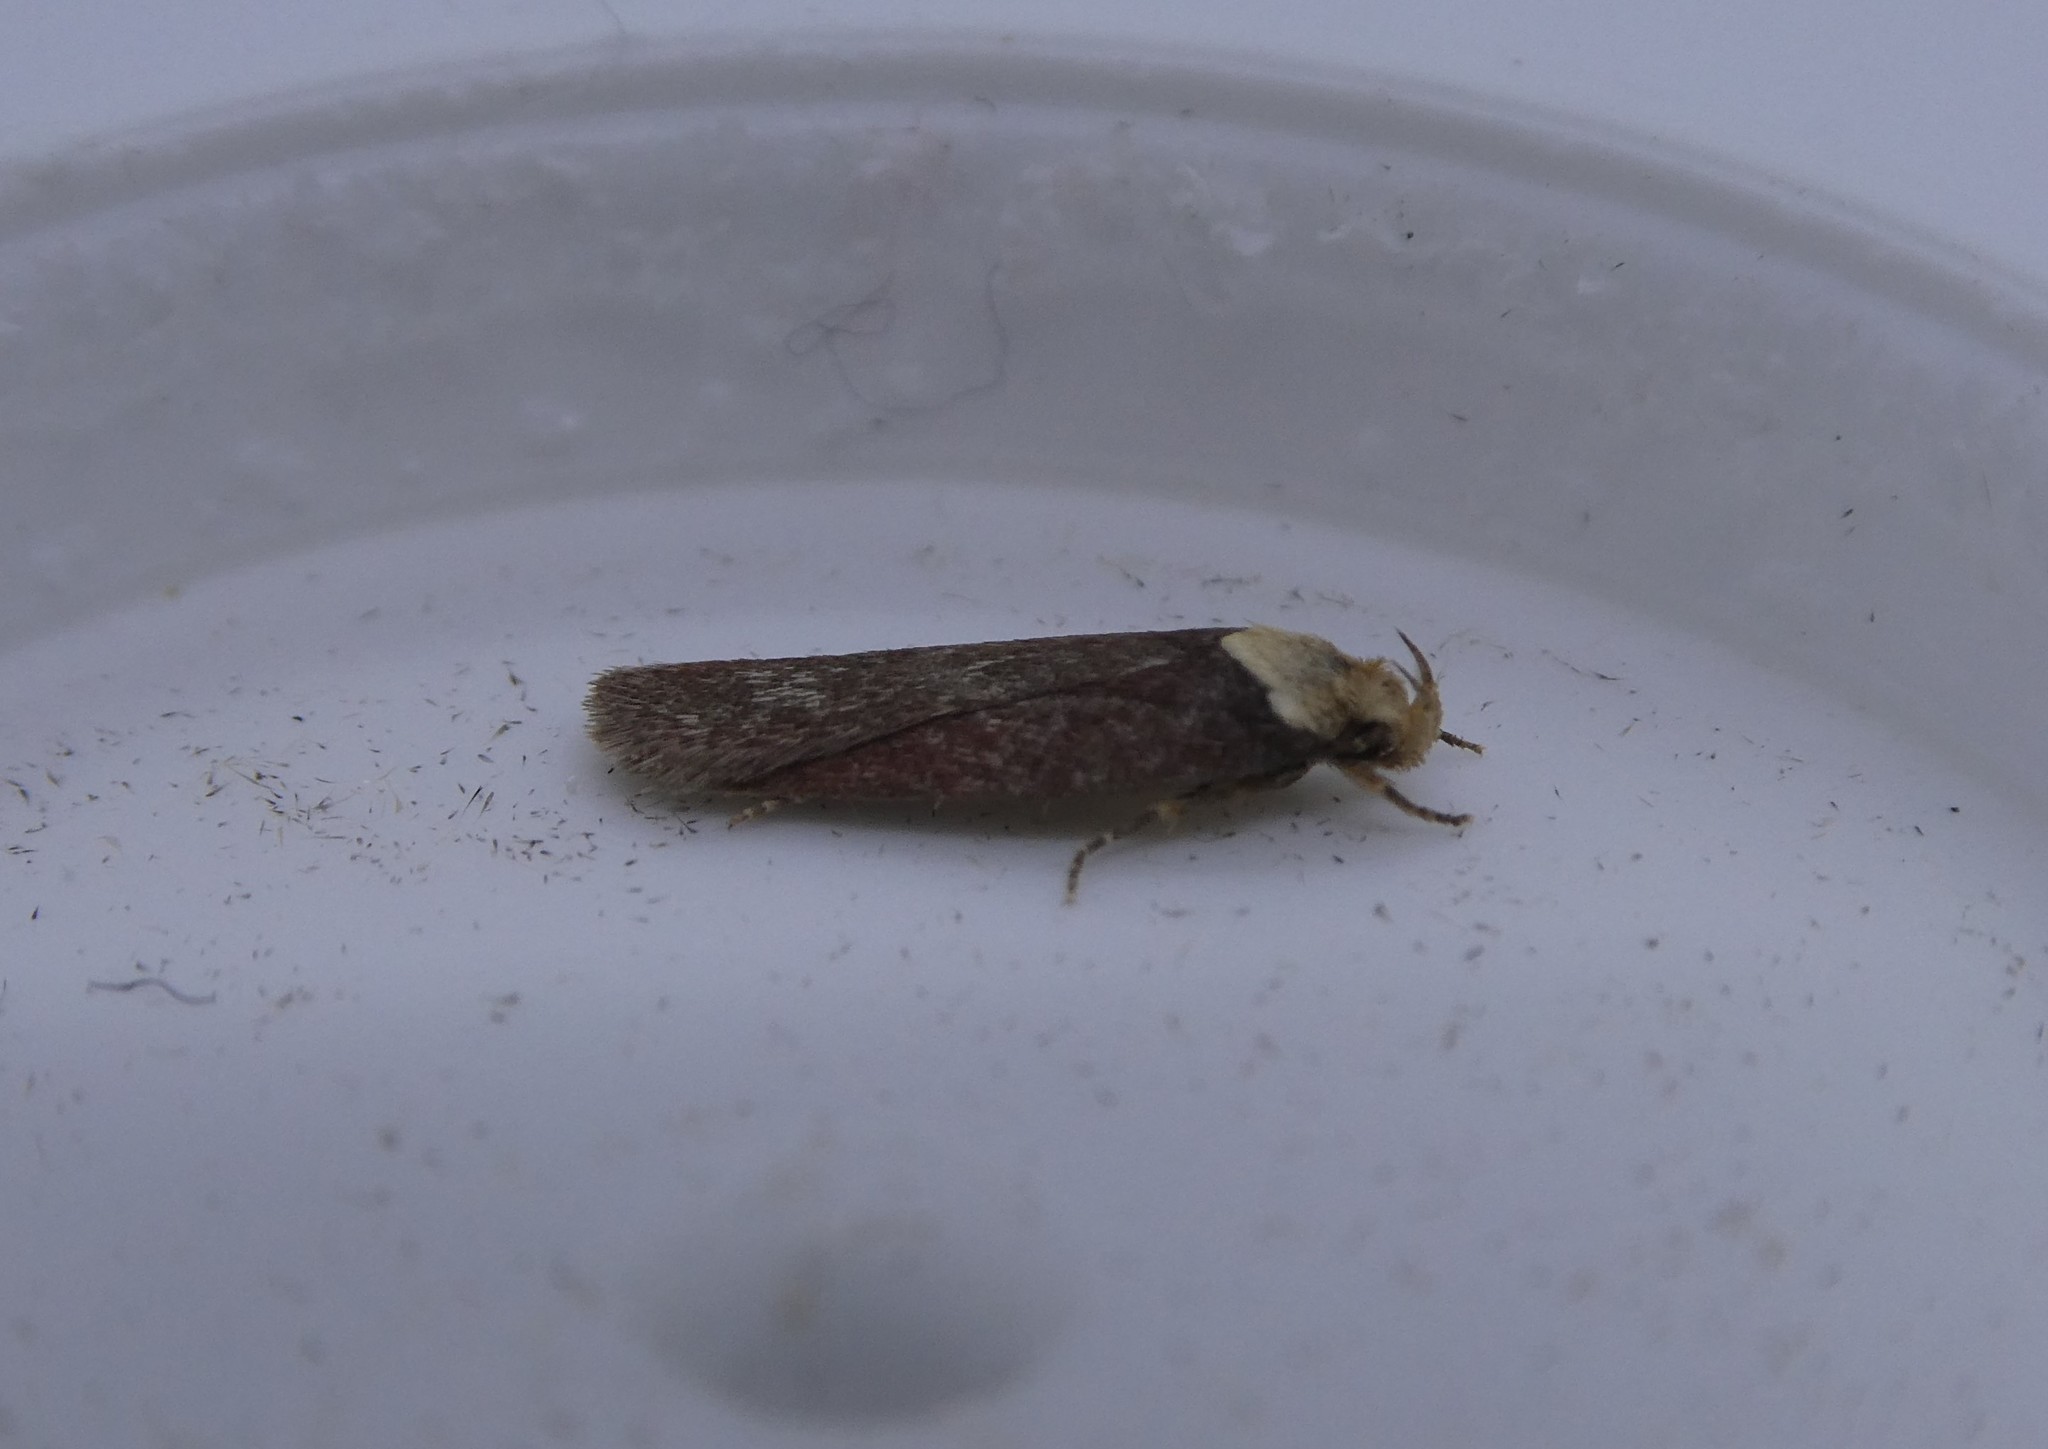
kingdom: Animalia
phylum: Arthropoda
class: Insecta
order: Lepidoptera
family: Depressariidae
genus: Depressaria
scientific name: Depressaria depressana
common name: Lost flat-body
